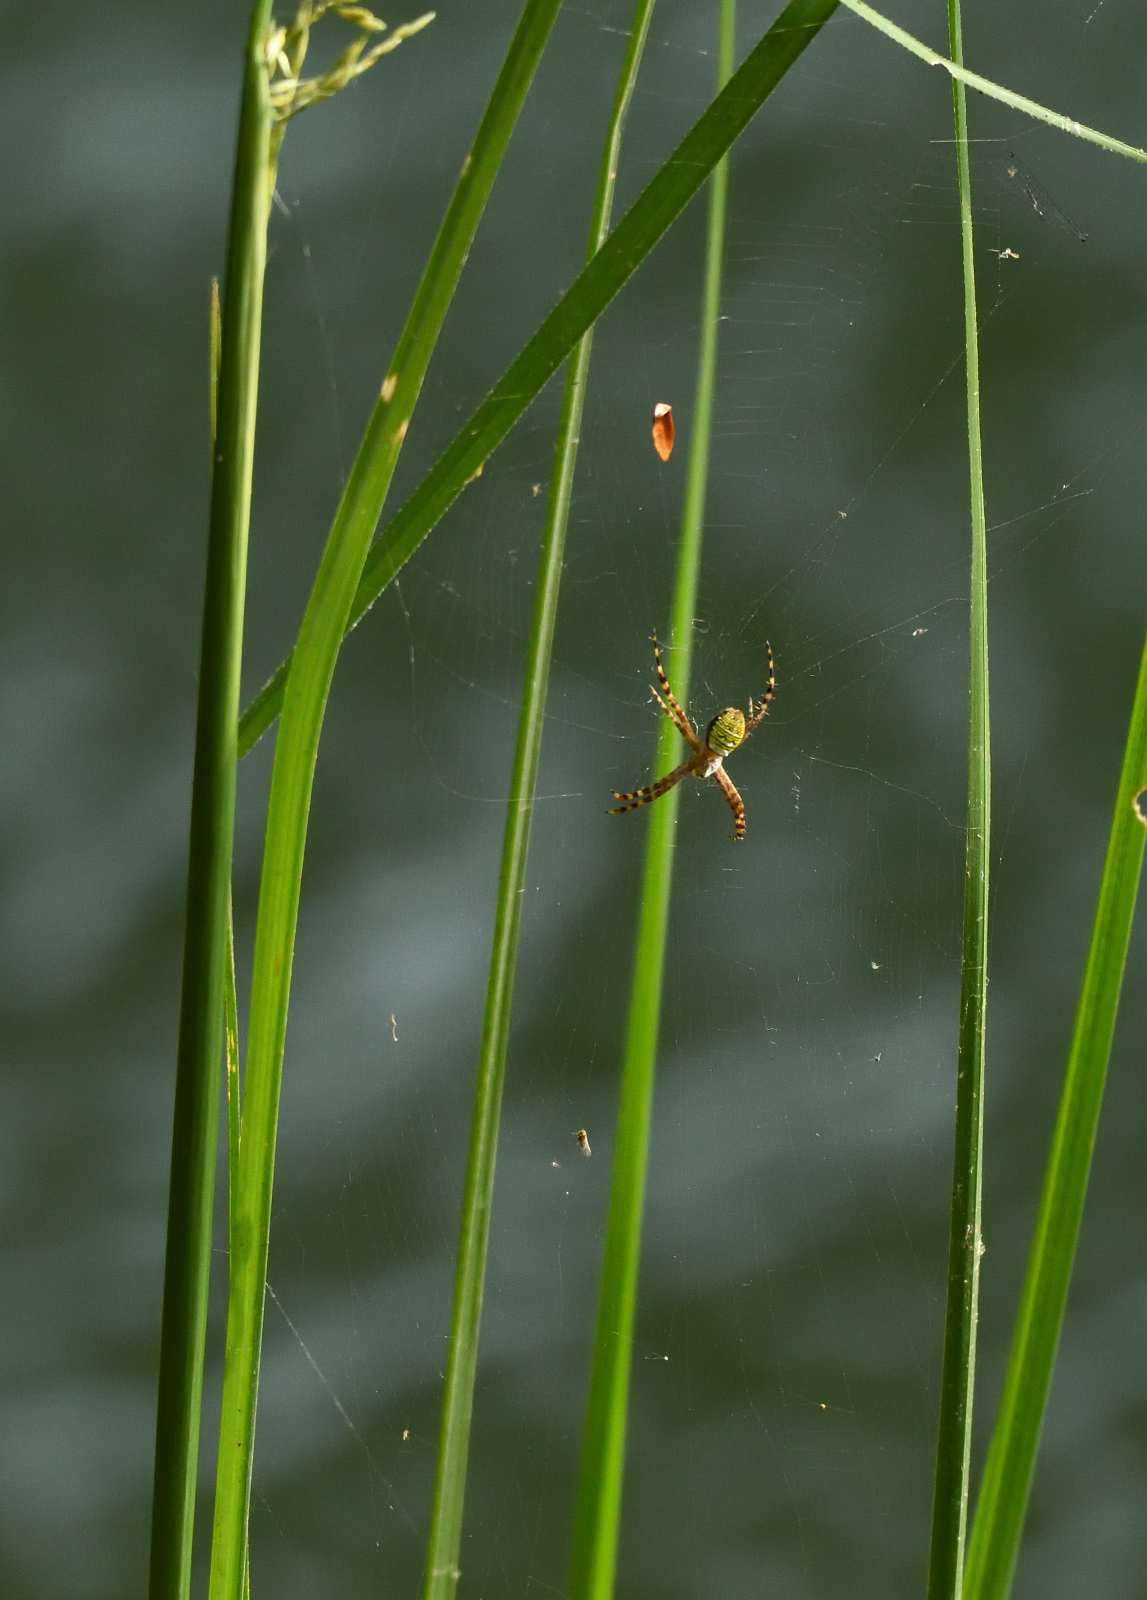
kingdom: Animalia
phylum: Arthropoda
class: Arachnida
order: Araneae
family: Araneidae
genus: Argiope
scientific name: Argiope aemula
